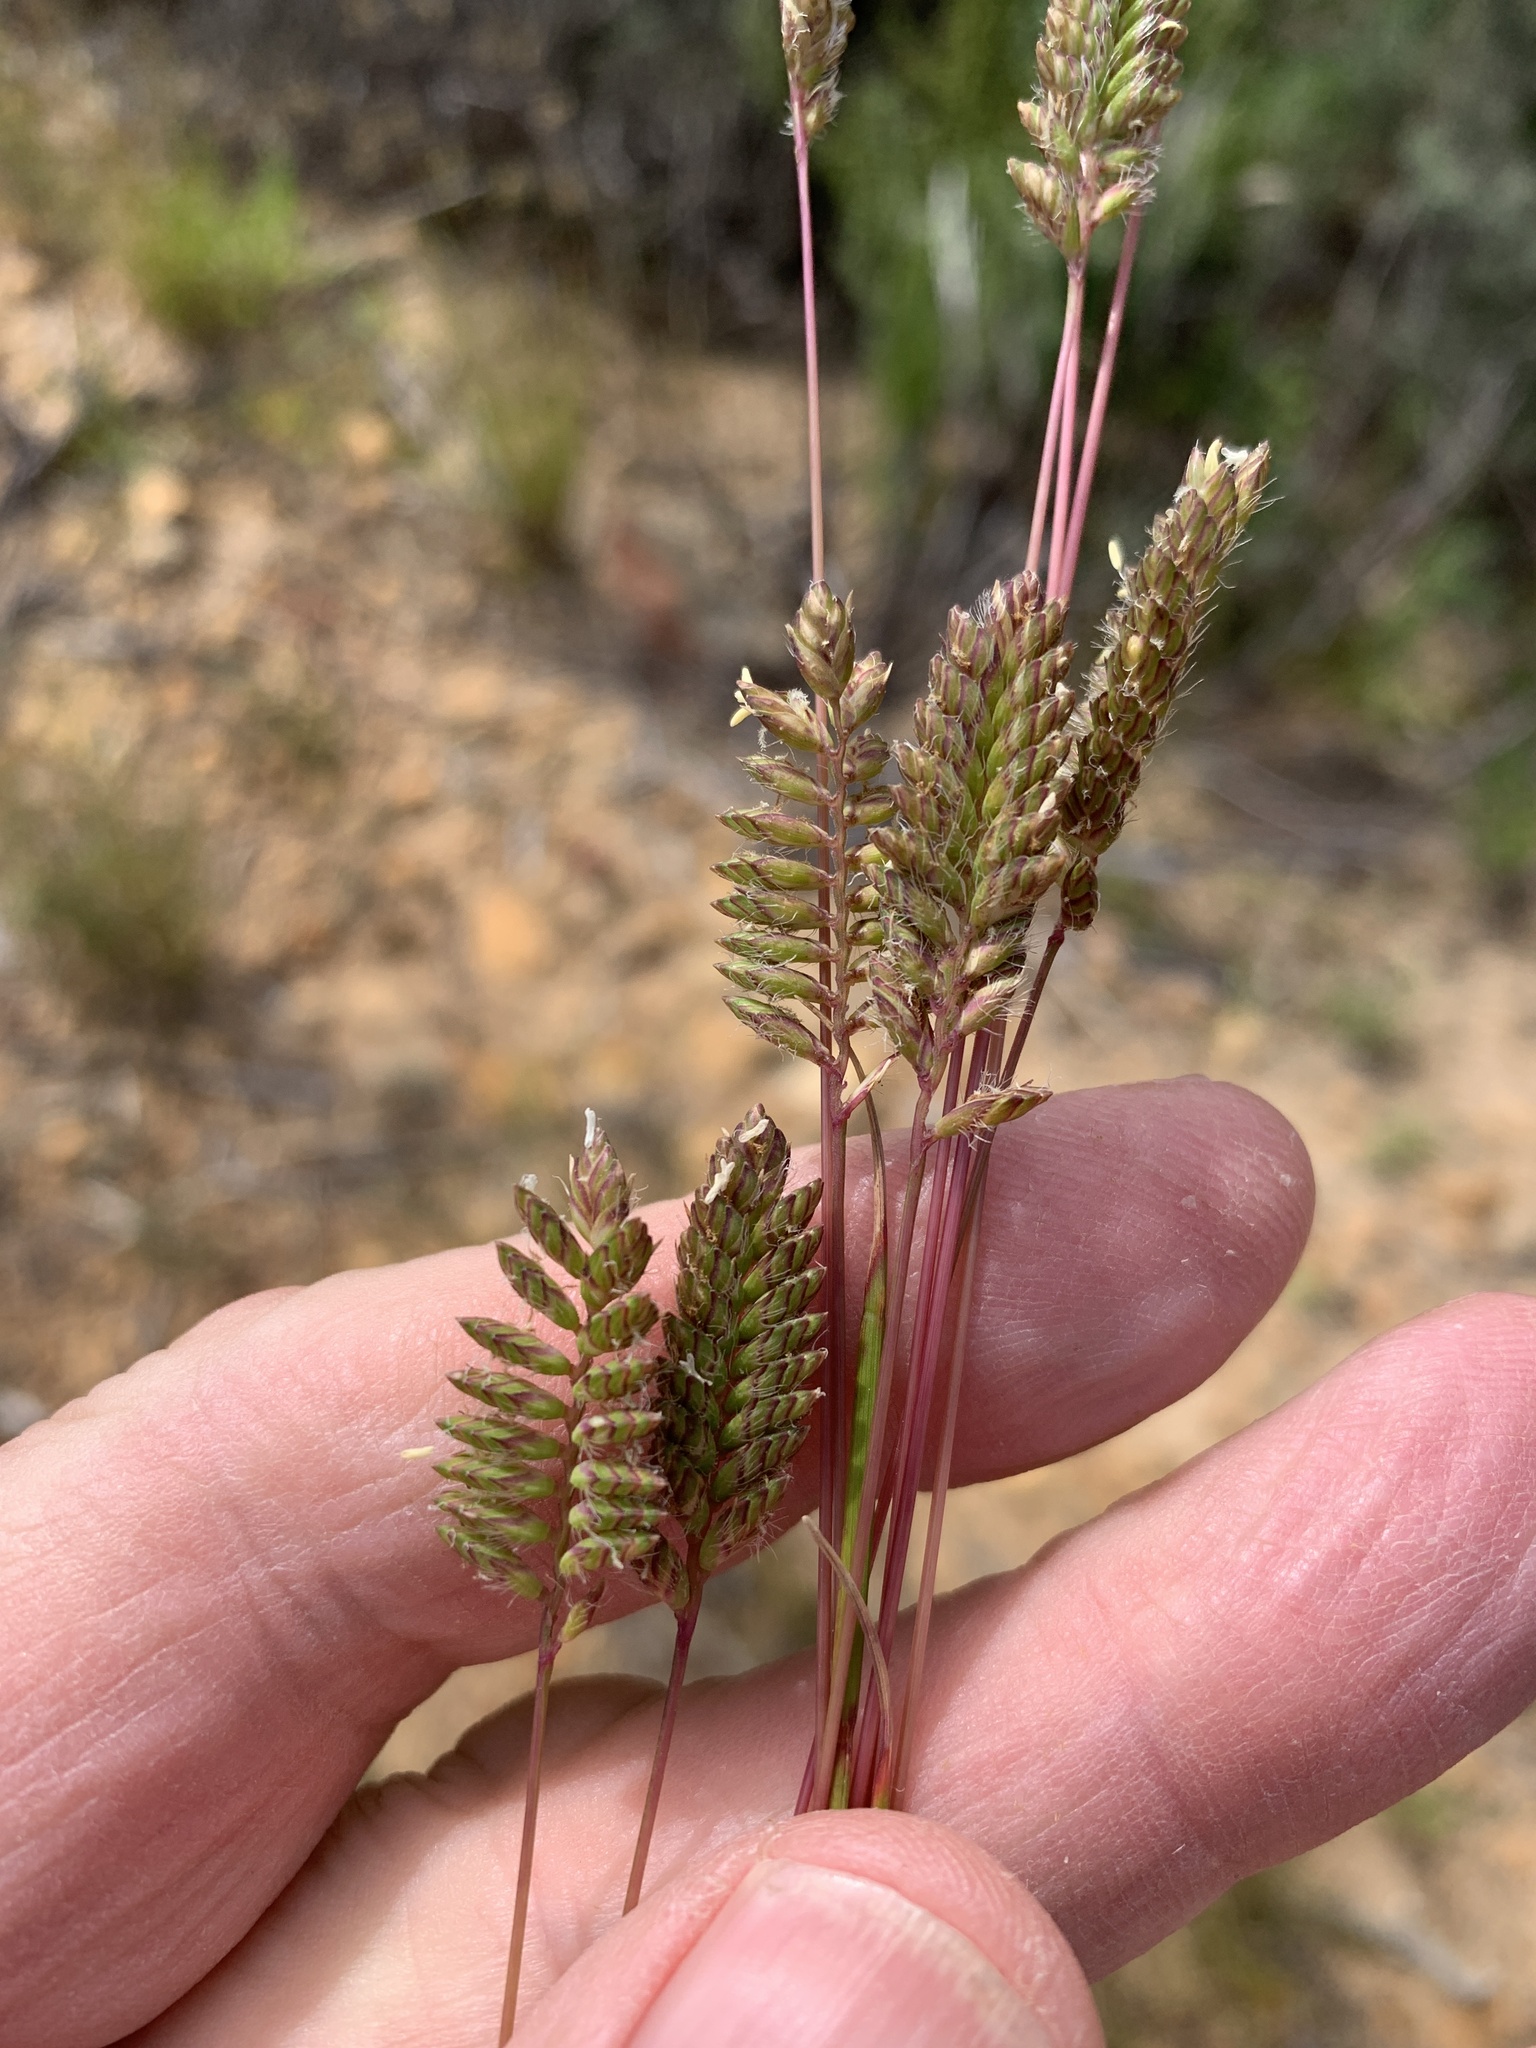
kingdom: Plantae
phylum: Tracheophyta
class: Liliopsida
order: Poales
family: Poaceae
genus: Tribolium
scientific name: Tribolium uniolae
